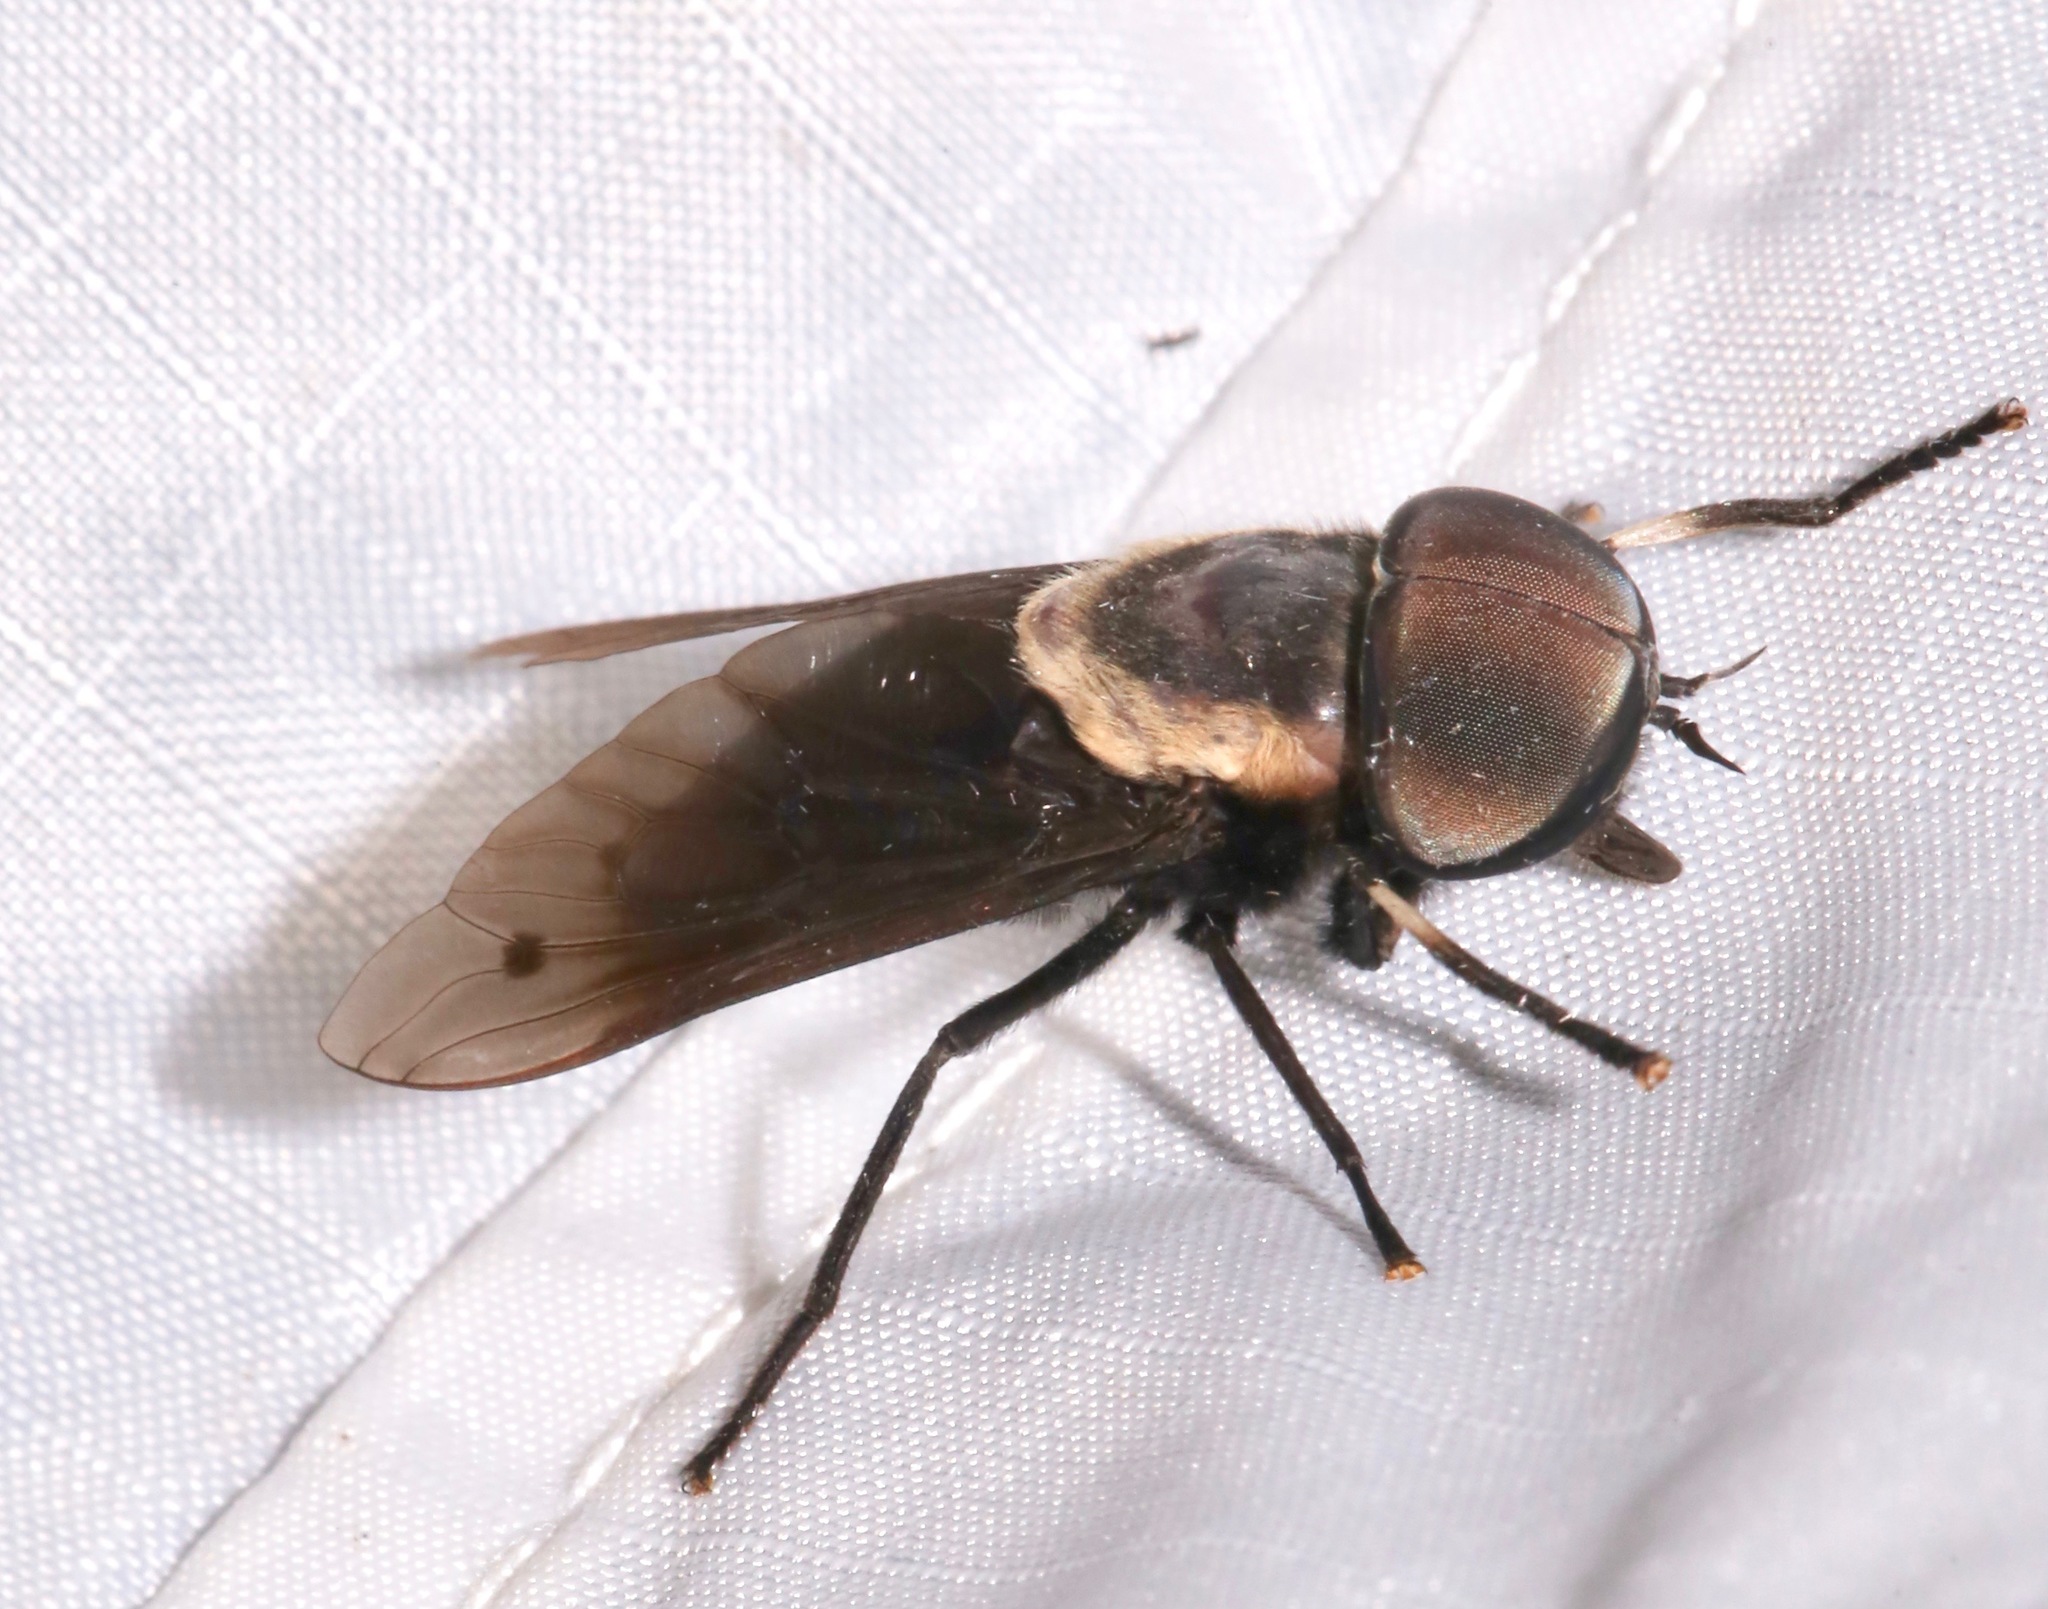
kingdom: Animalia
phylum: Arthropoda
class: Insecta
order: Diptera
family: Tabanidae
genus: Tabanus
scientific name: Tabanus punctifer
